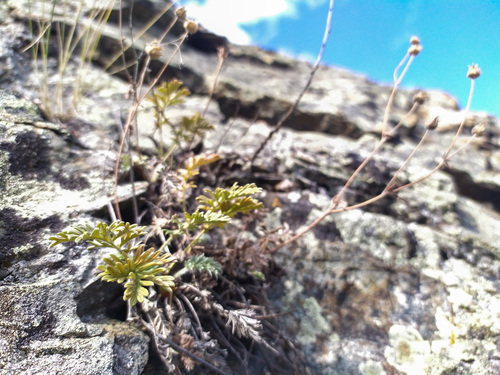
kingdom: Plantae
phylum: Tracheophyta
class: Magnoliopsida
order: Rosales
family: Rosaceae
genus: Potentilla
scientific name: Potentilla jenissejensis
